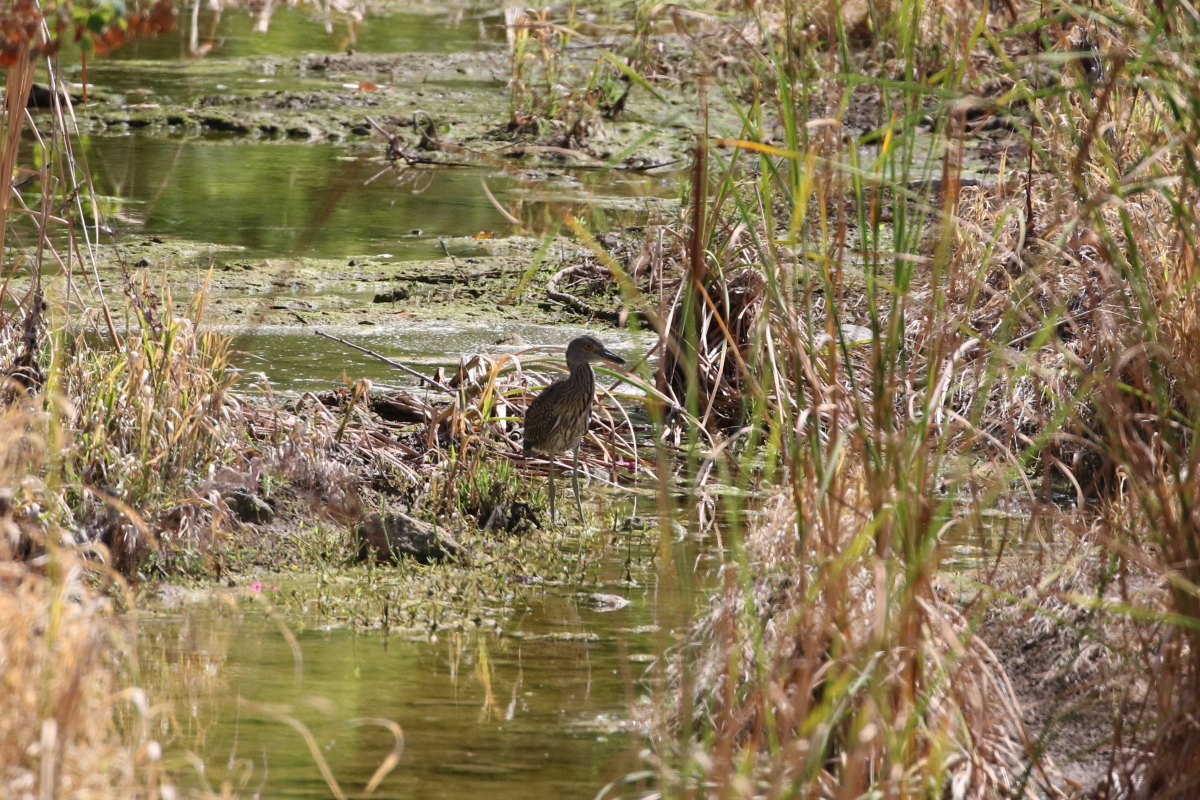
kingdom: Animalia
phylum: Chordata
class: Aves
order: Pelecaniformes
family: Ardeidae
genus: Nyctanassa
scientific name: Nyctanassa violacea
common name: Yellow-crowned night heron
